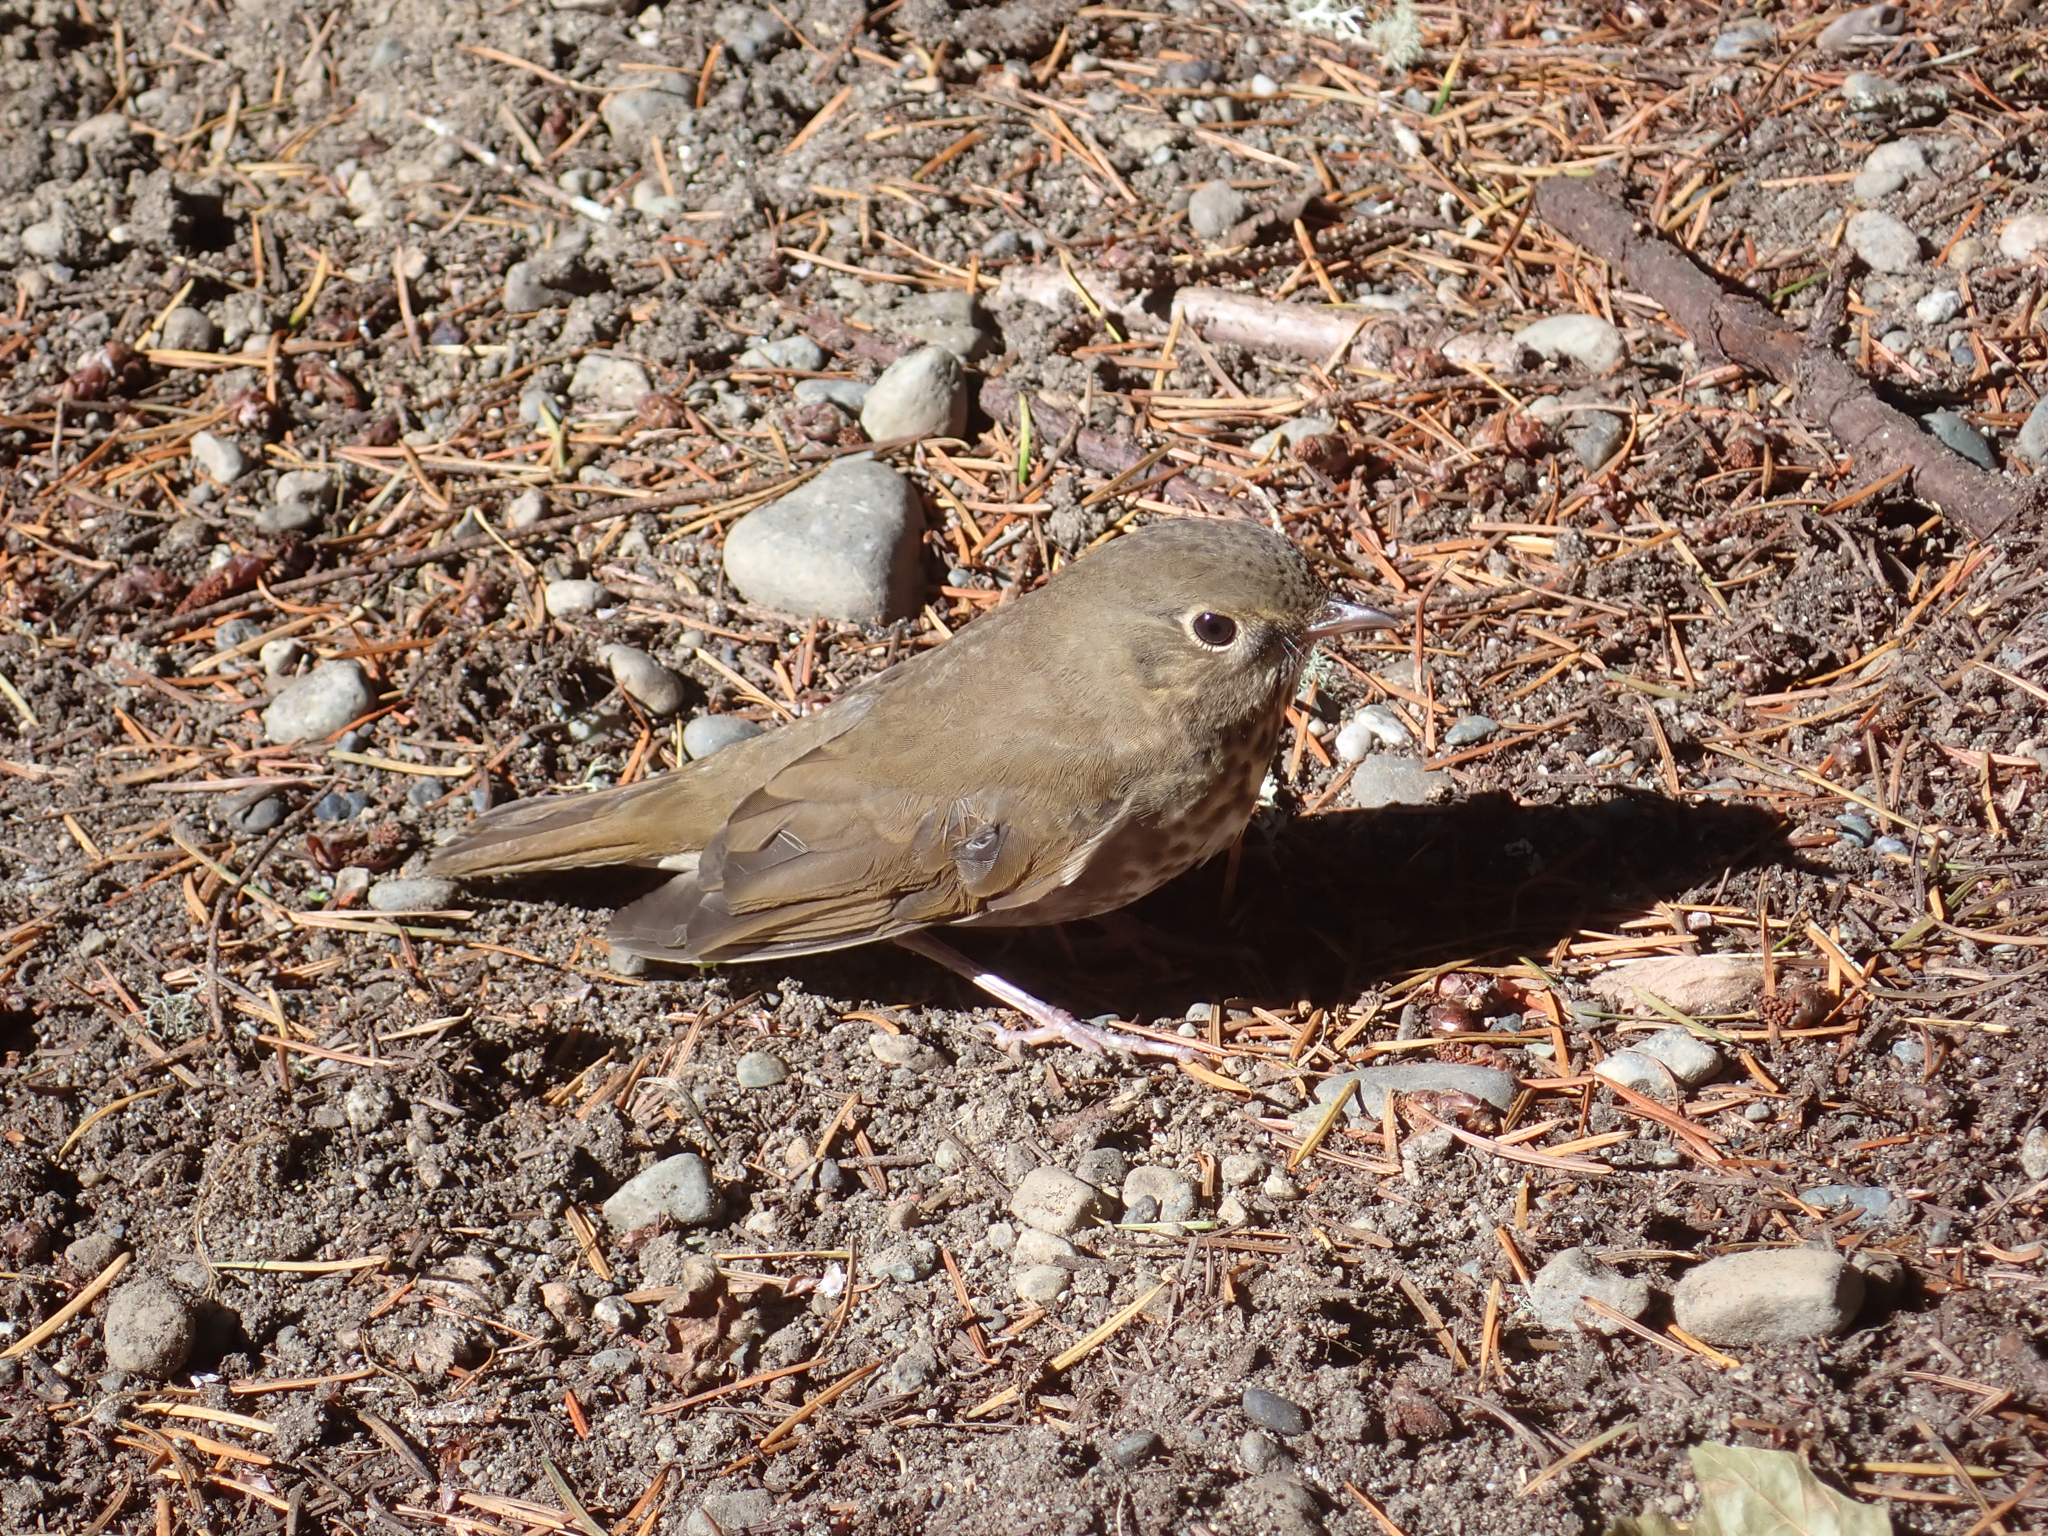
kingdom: Animalia
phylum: Chordata
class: Aves
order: Passeriformes
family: Turdidae
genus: Catharus
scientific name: Catharus ustulatus
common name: Swainson's thrush
